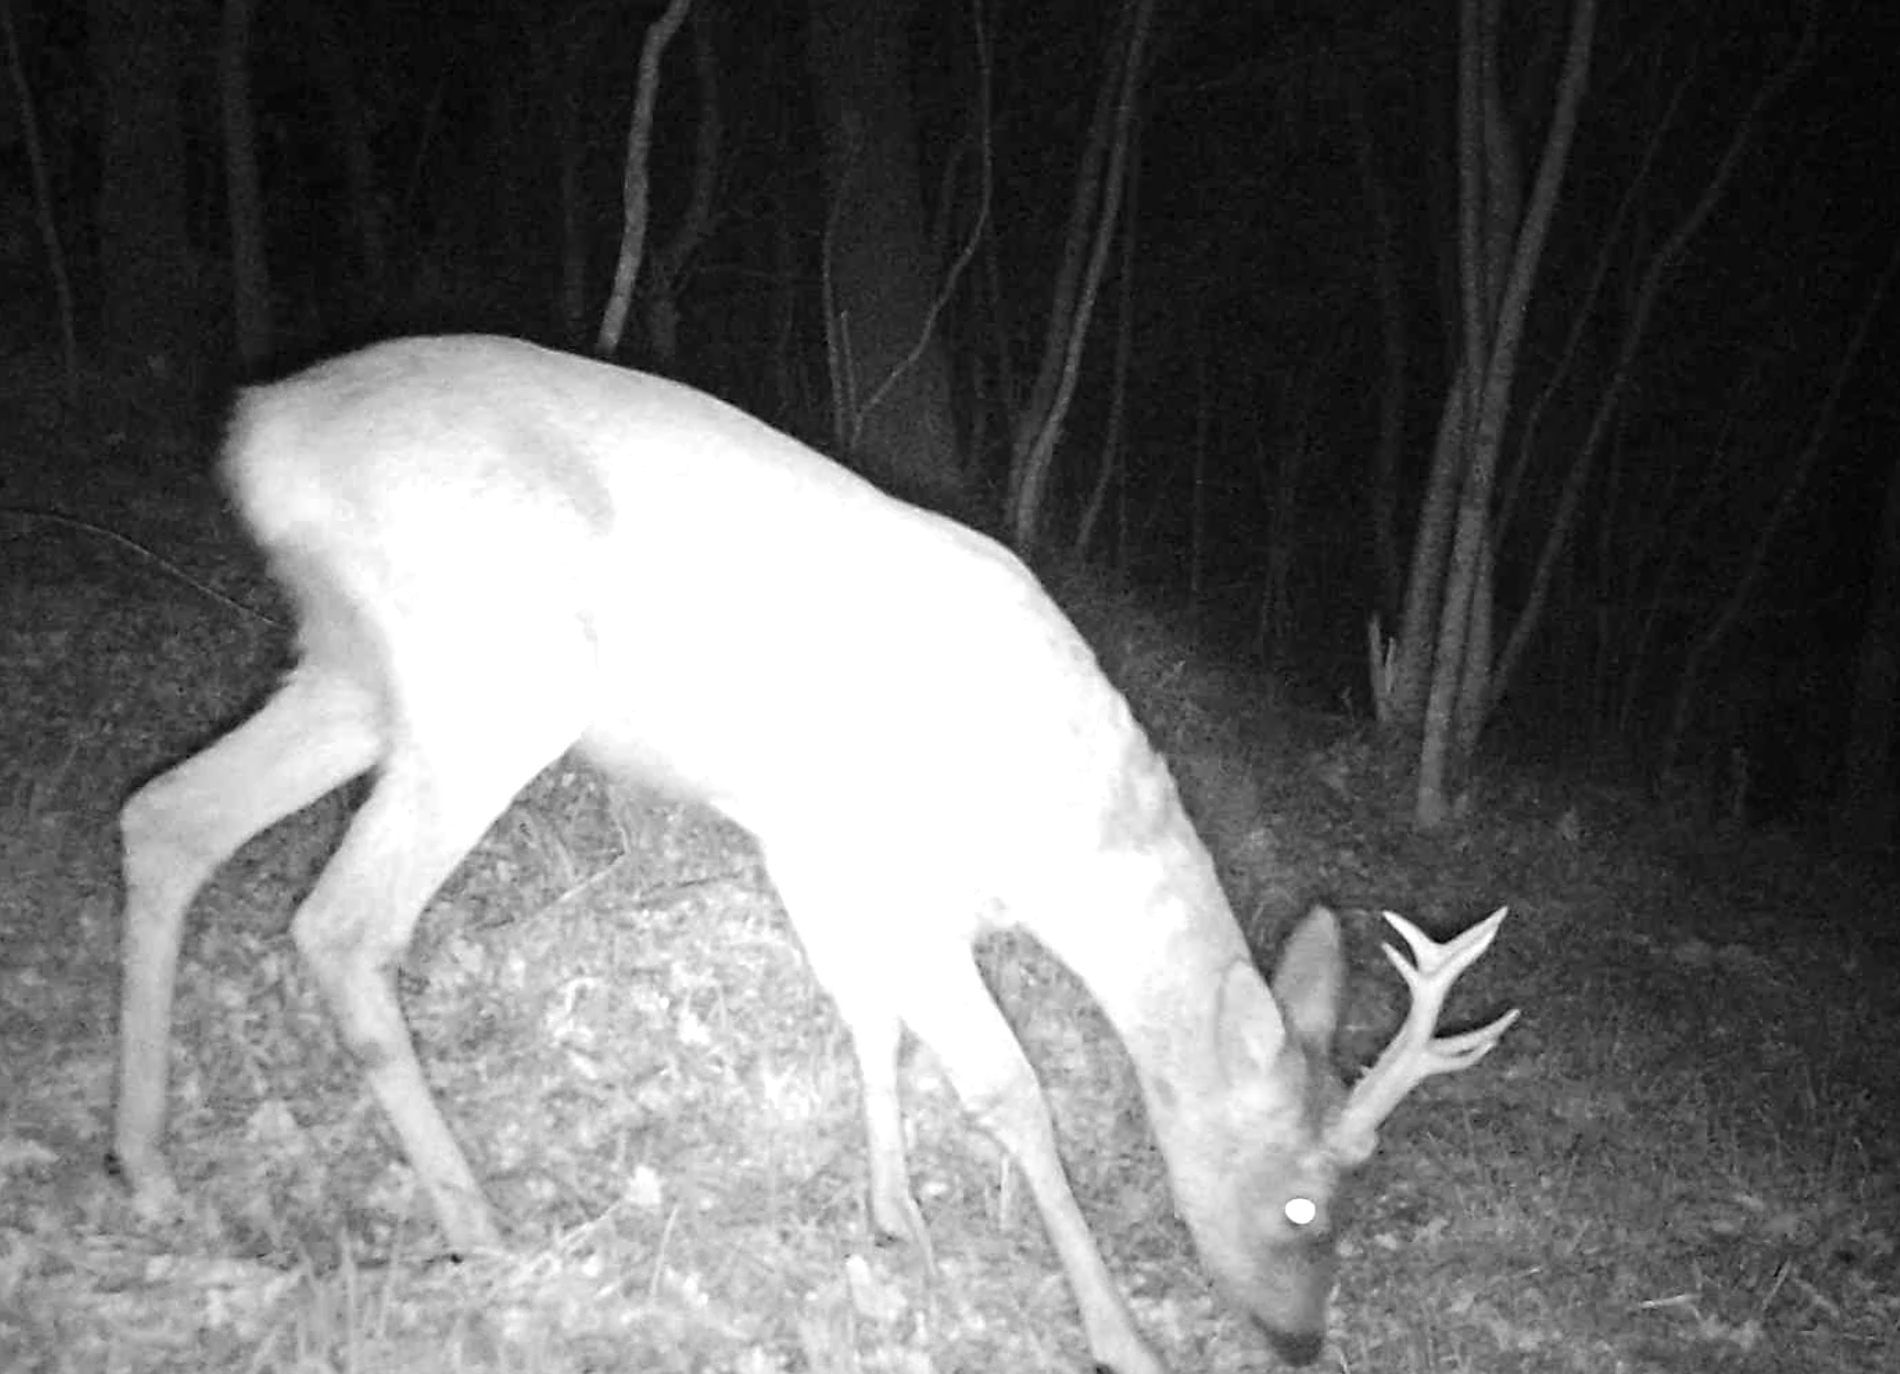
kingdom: Animalia
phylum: Chordata
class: Mammalia
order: Artiodactyla
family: Cervidae
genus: Capreolus
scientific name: Capreolus capreolus
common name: Western roe deer
